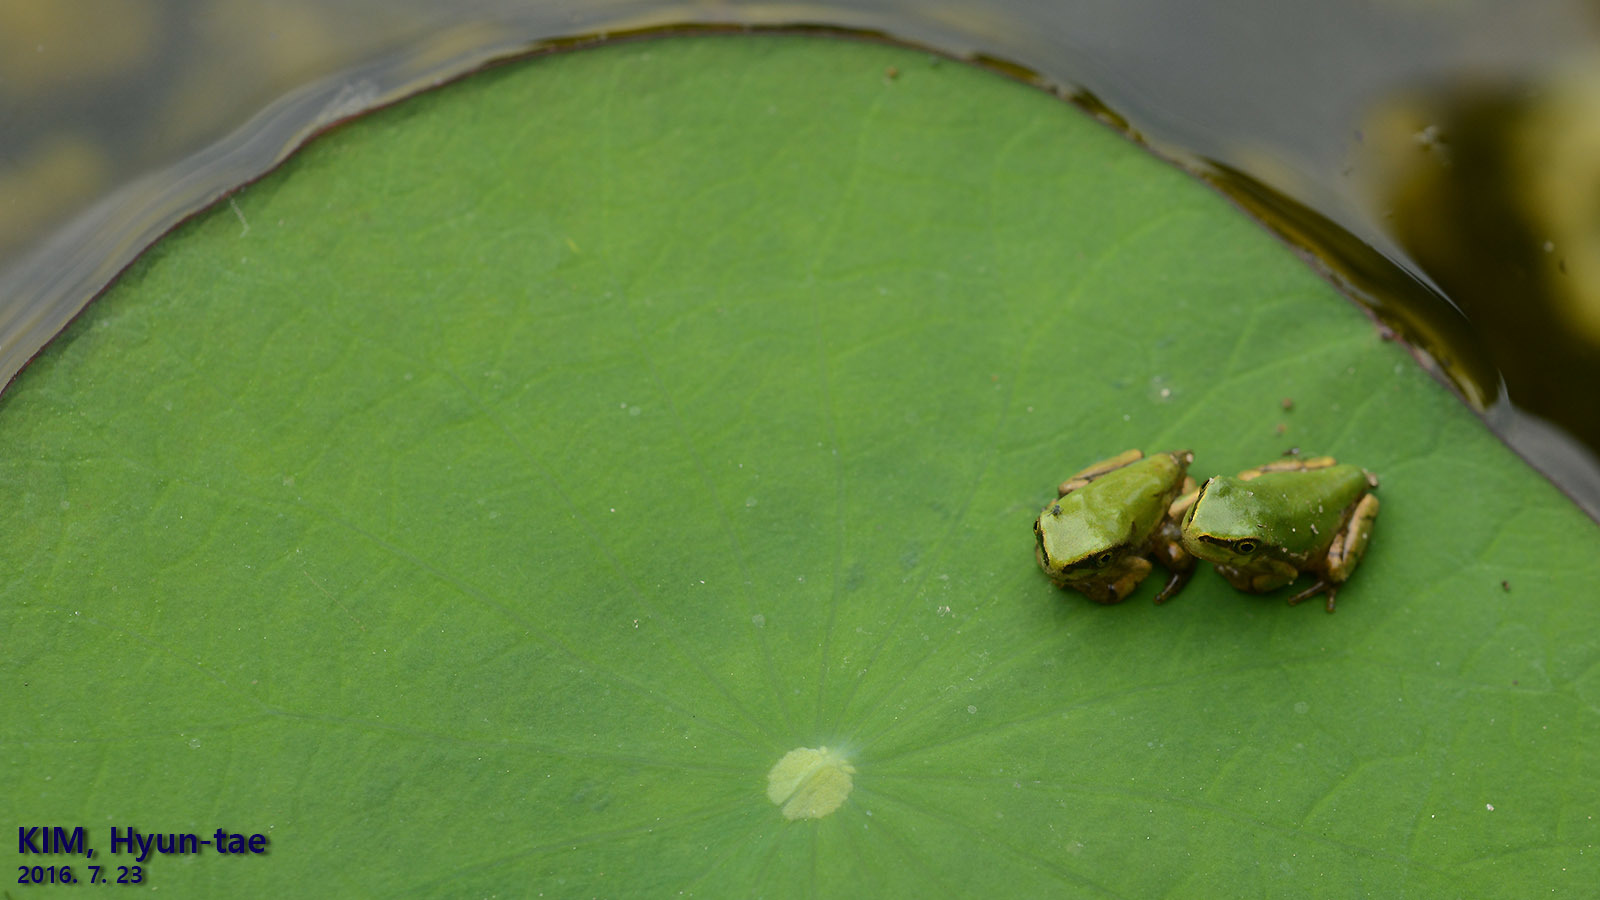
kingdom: Animalia
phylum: Chordata
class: Amphibia
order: Anura
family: Hylidae
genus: Dryophytes
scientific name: Dryophytes japonicus
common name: Japanese treefrog
